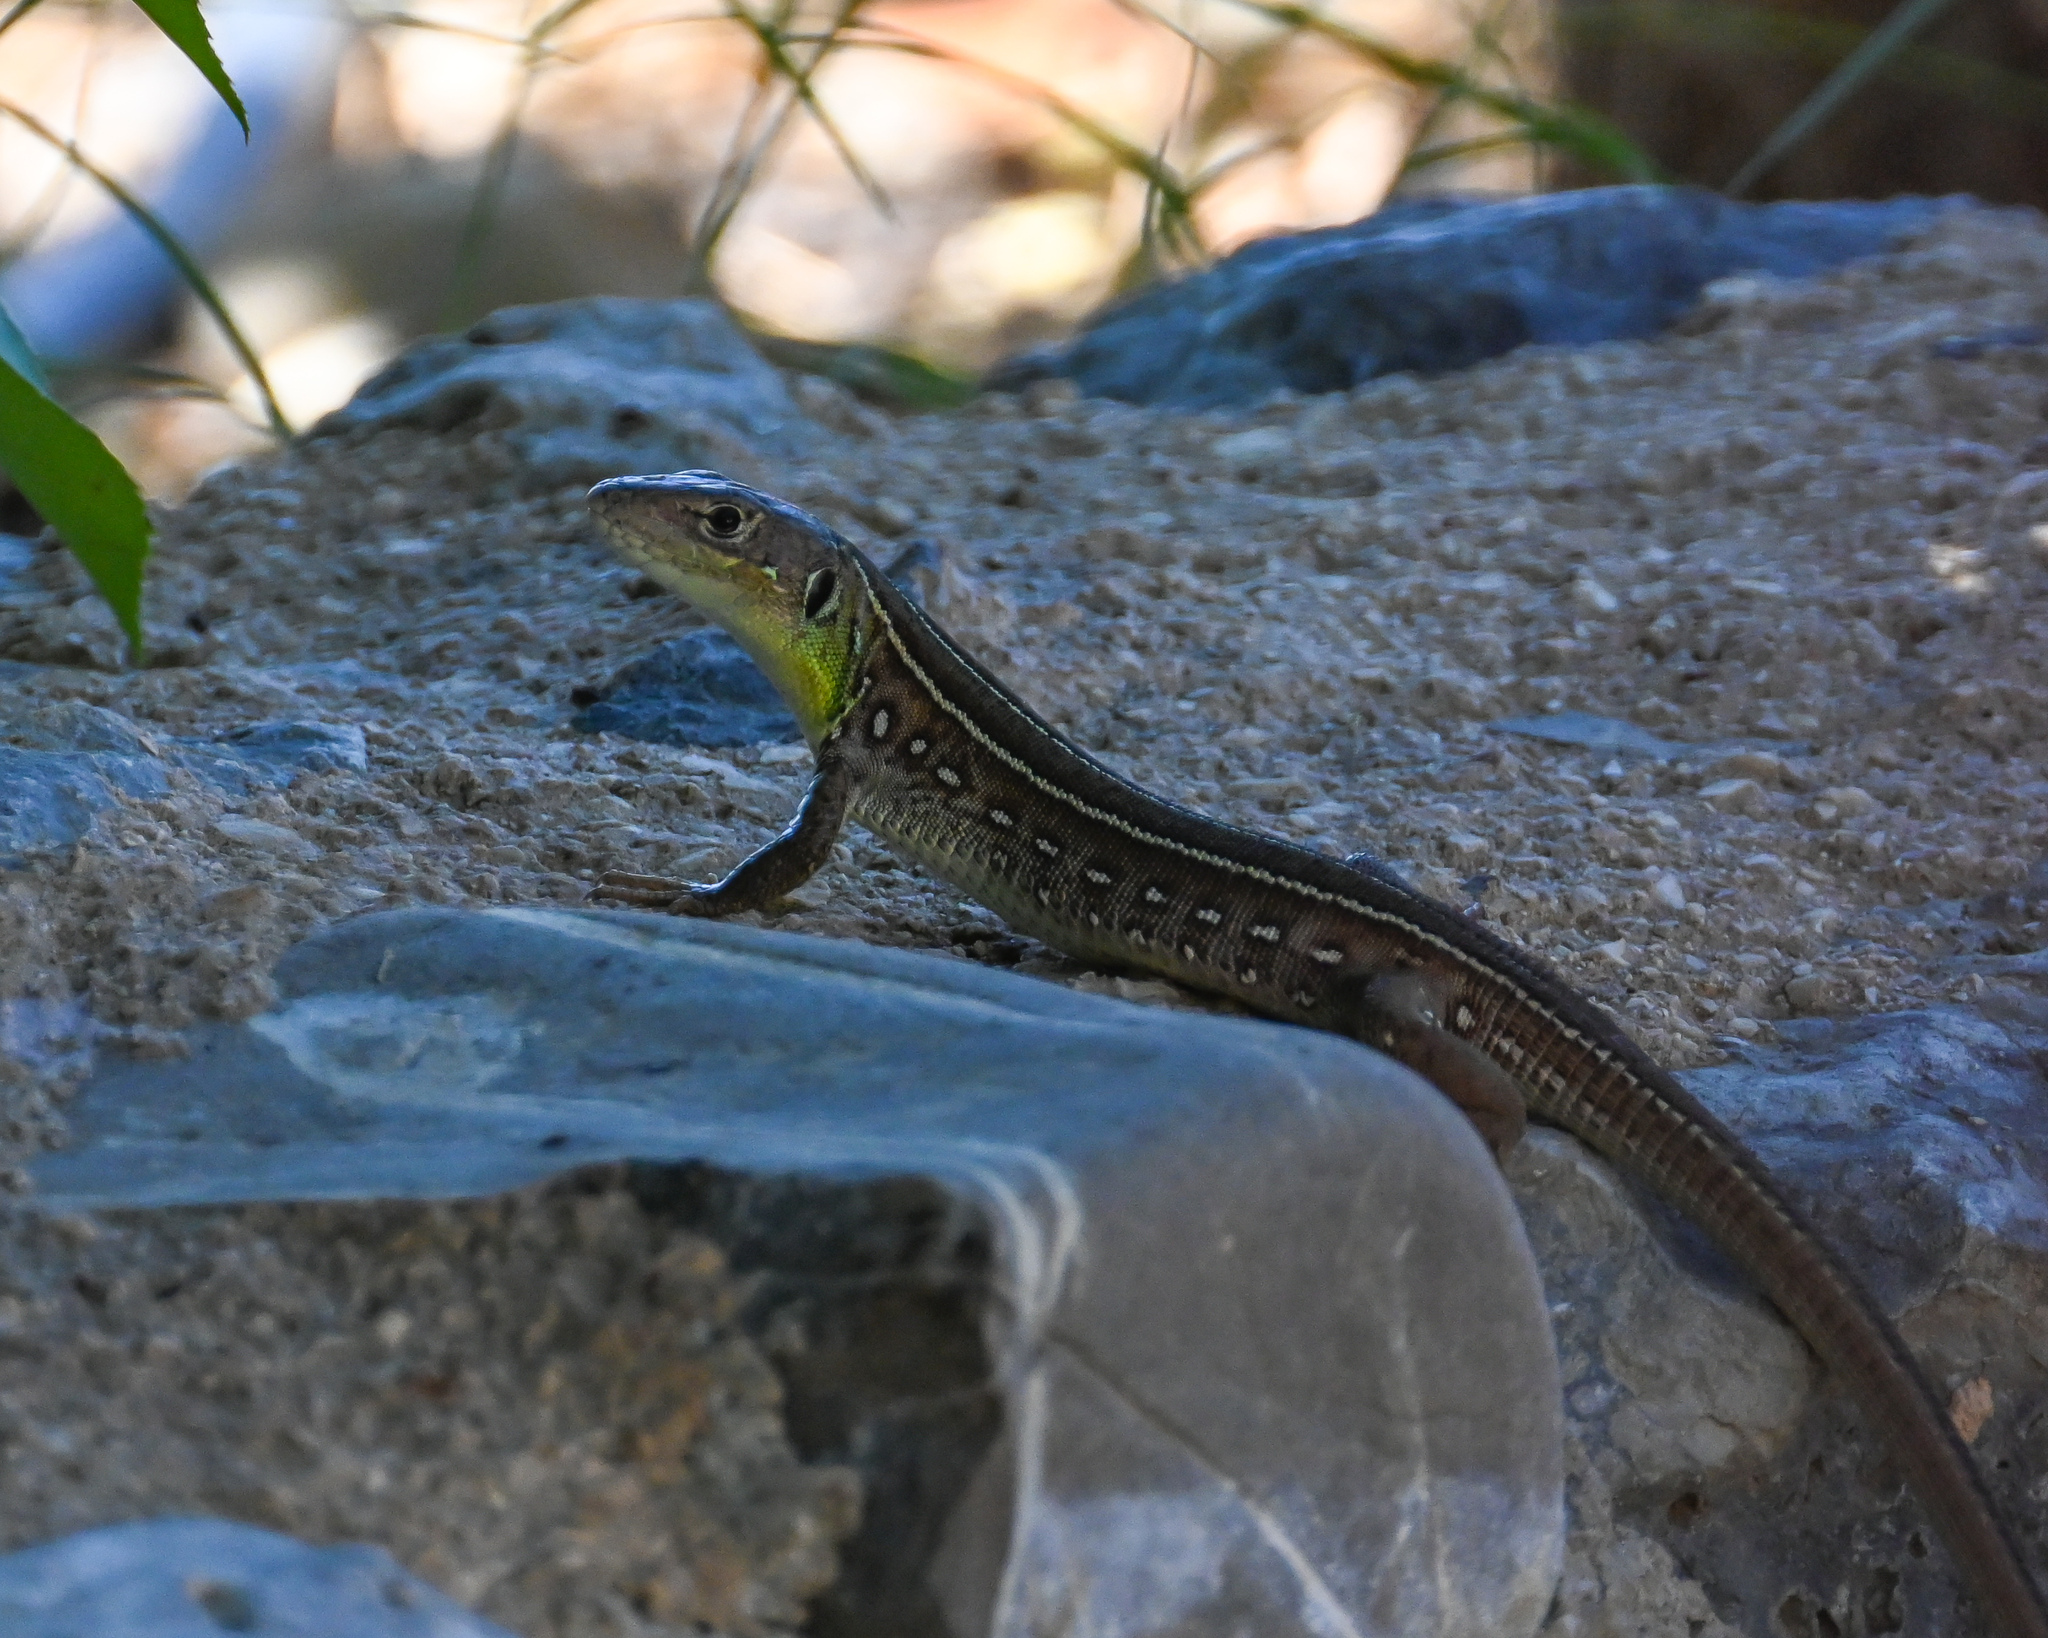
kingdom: Animalia
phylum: Chordata
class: Squamata
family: Lacertidae
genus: Lacerta
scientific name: Lacerta trilineata
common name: Balkan green lizard
